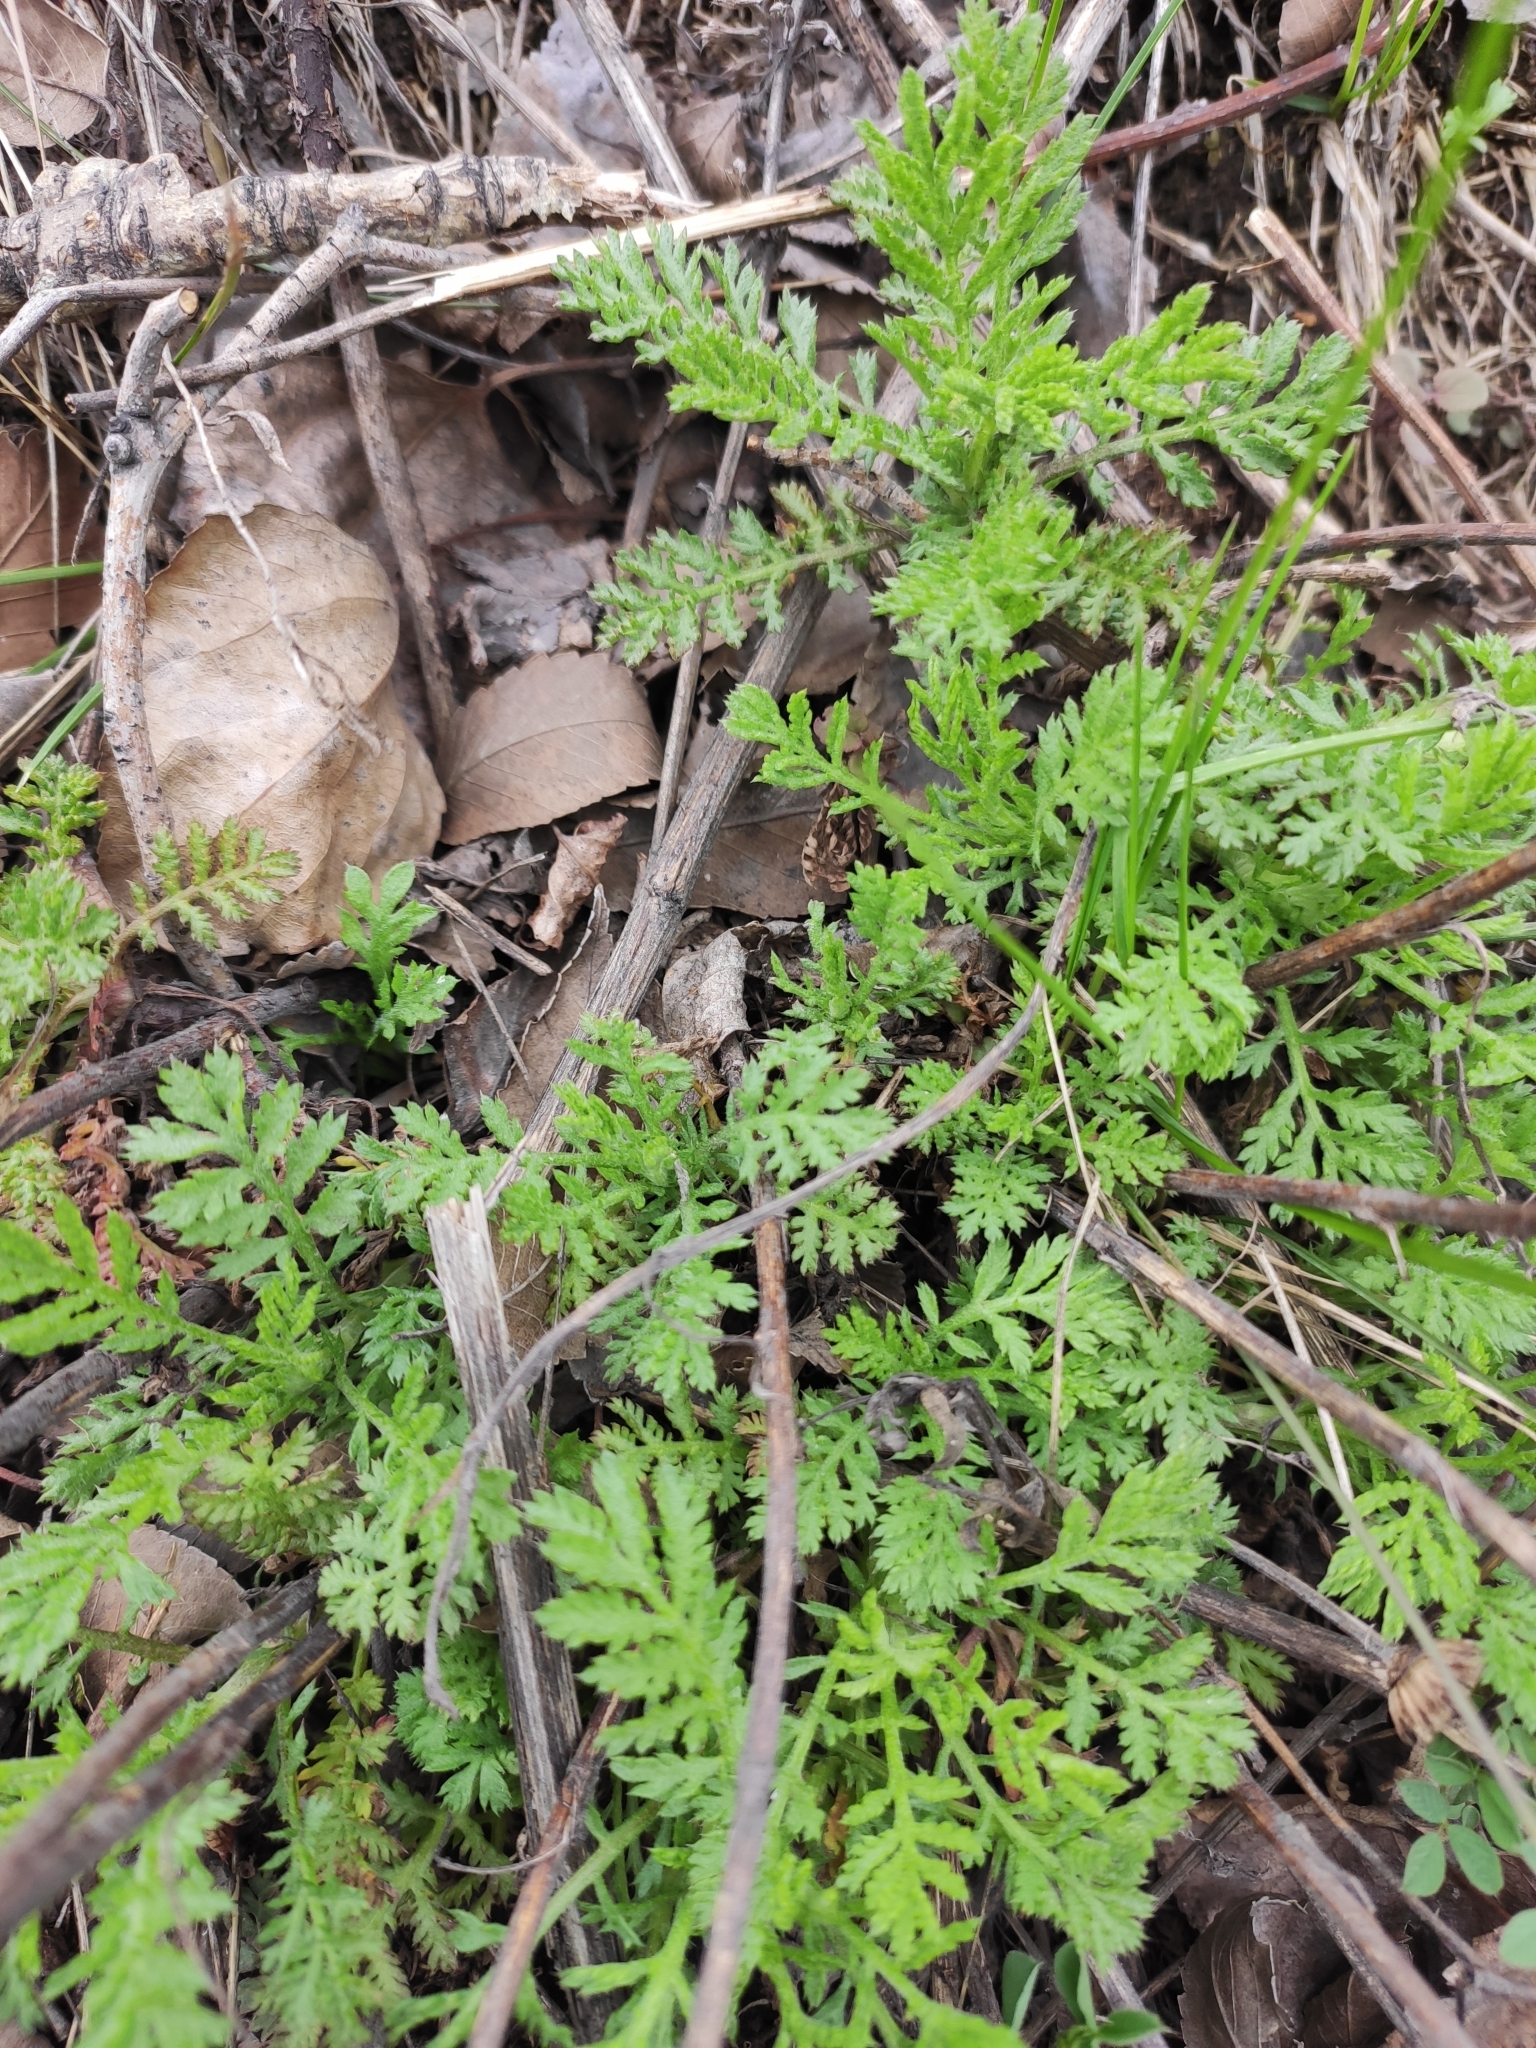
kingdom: Plantae
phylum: Tracheophyta
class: Magnoliopsida
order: Asterales
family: Asteraceae
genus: Cota
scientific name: Cota tinctoria
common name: Golden chamomile
